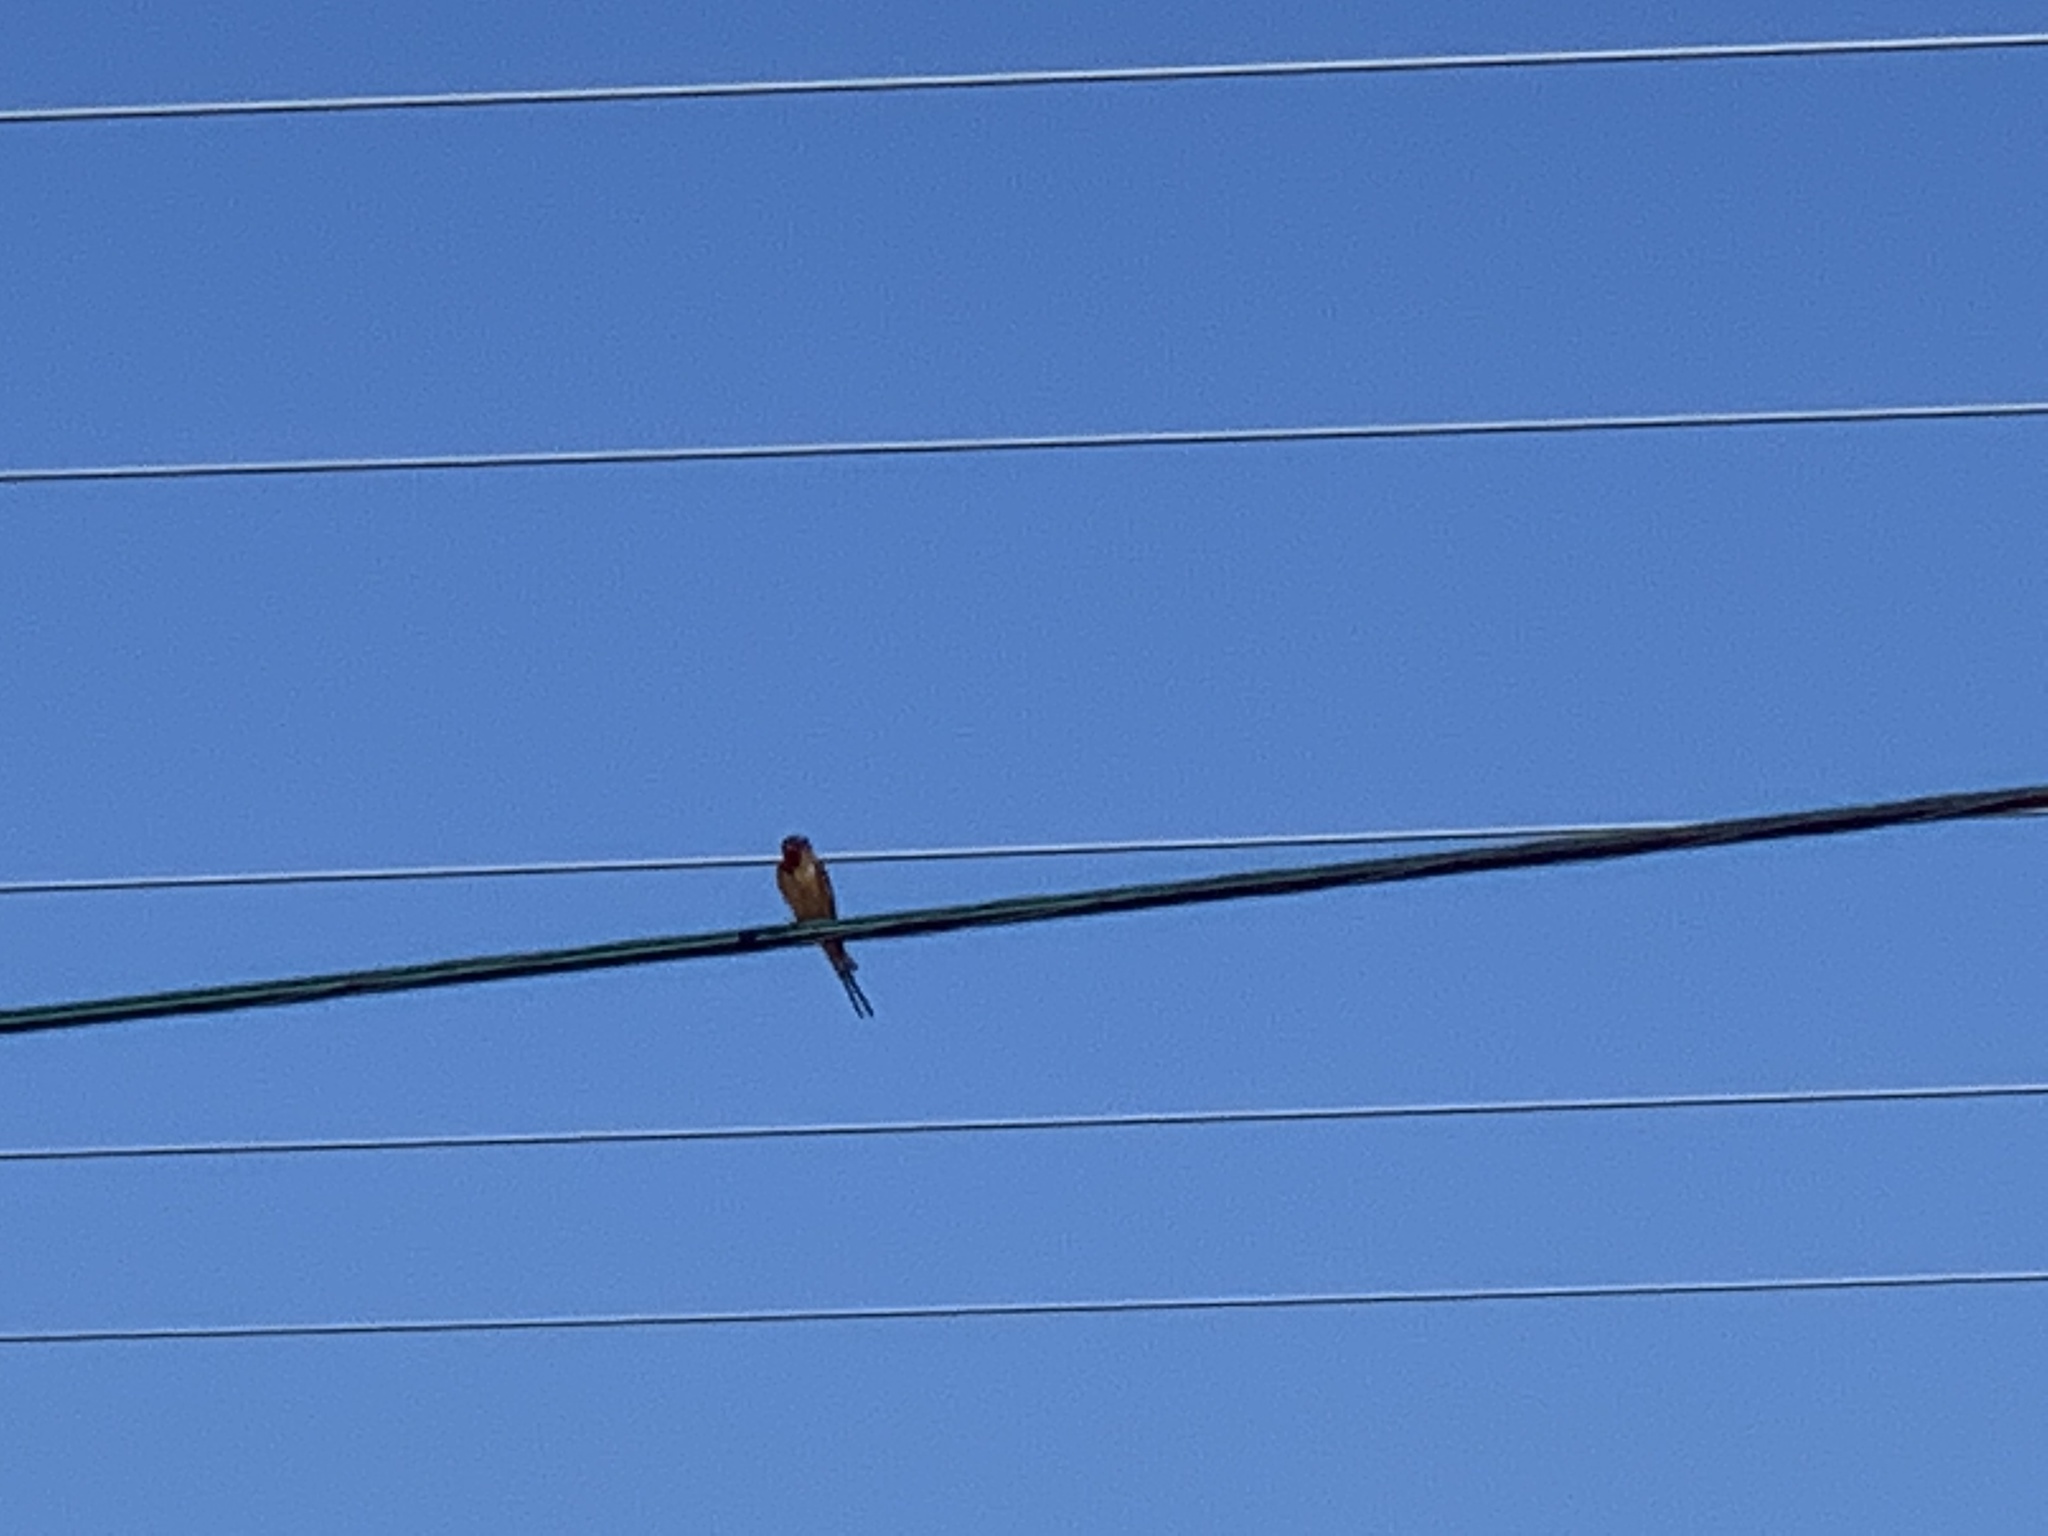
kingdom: Animalia
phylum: Chordata
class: Aves
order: Passeriformes
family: Hirundinidae
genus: Hirundo
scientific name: Hirundo rustica
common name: Barn swallow
